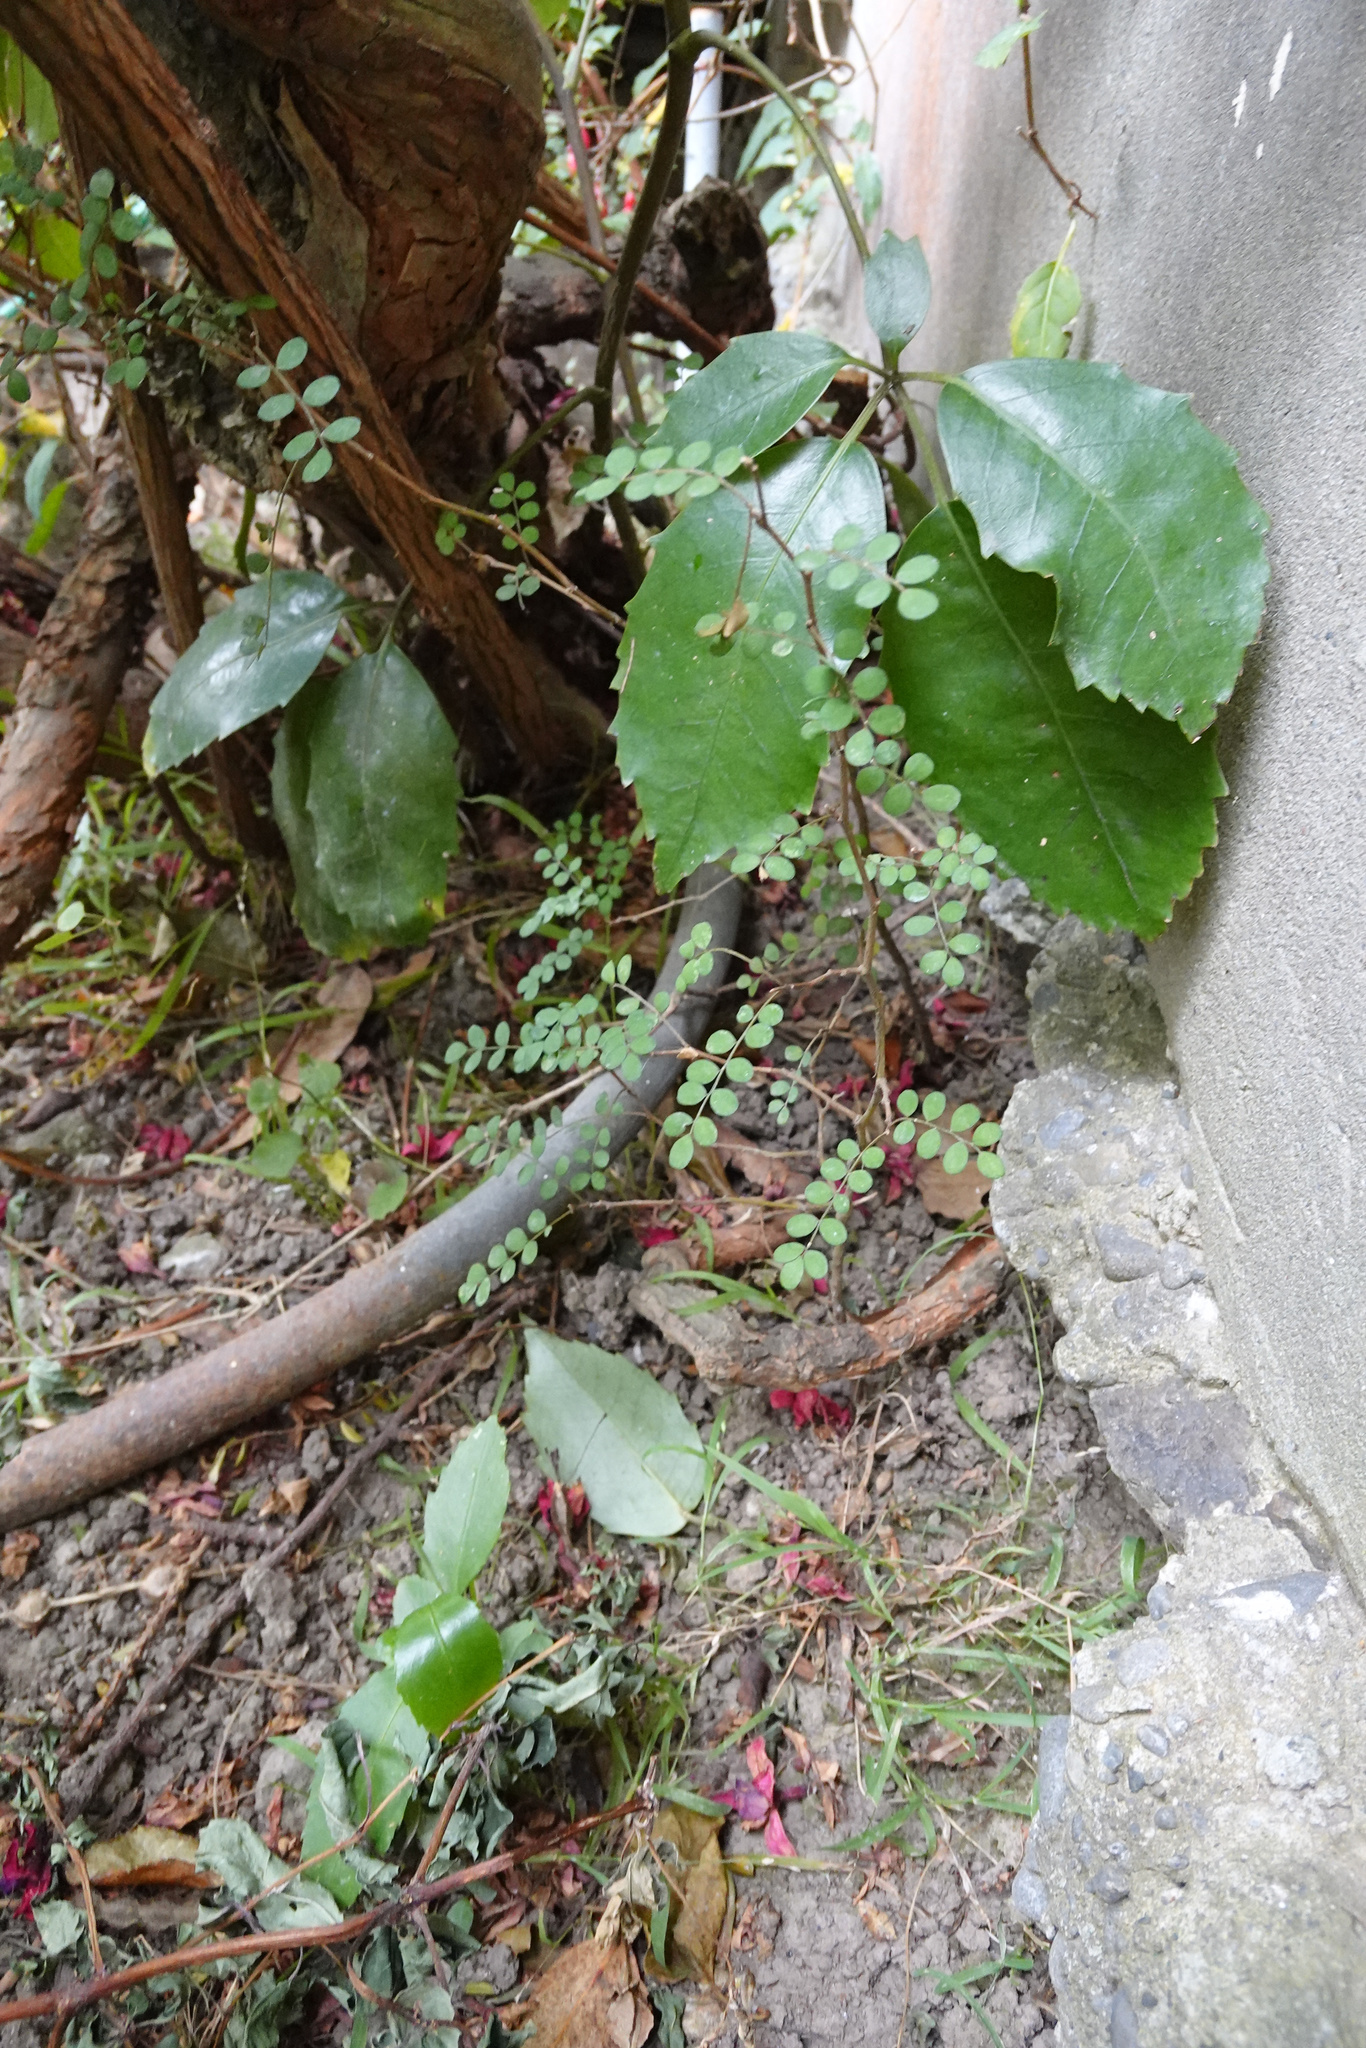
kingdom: Plantae
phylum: Tracheophyta
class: Magnoliopsida
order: Fabales
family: Fabaceae
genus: Sophora
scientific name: Sophora microphylla
